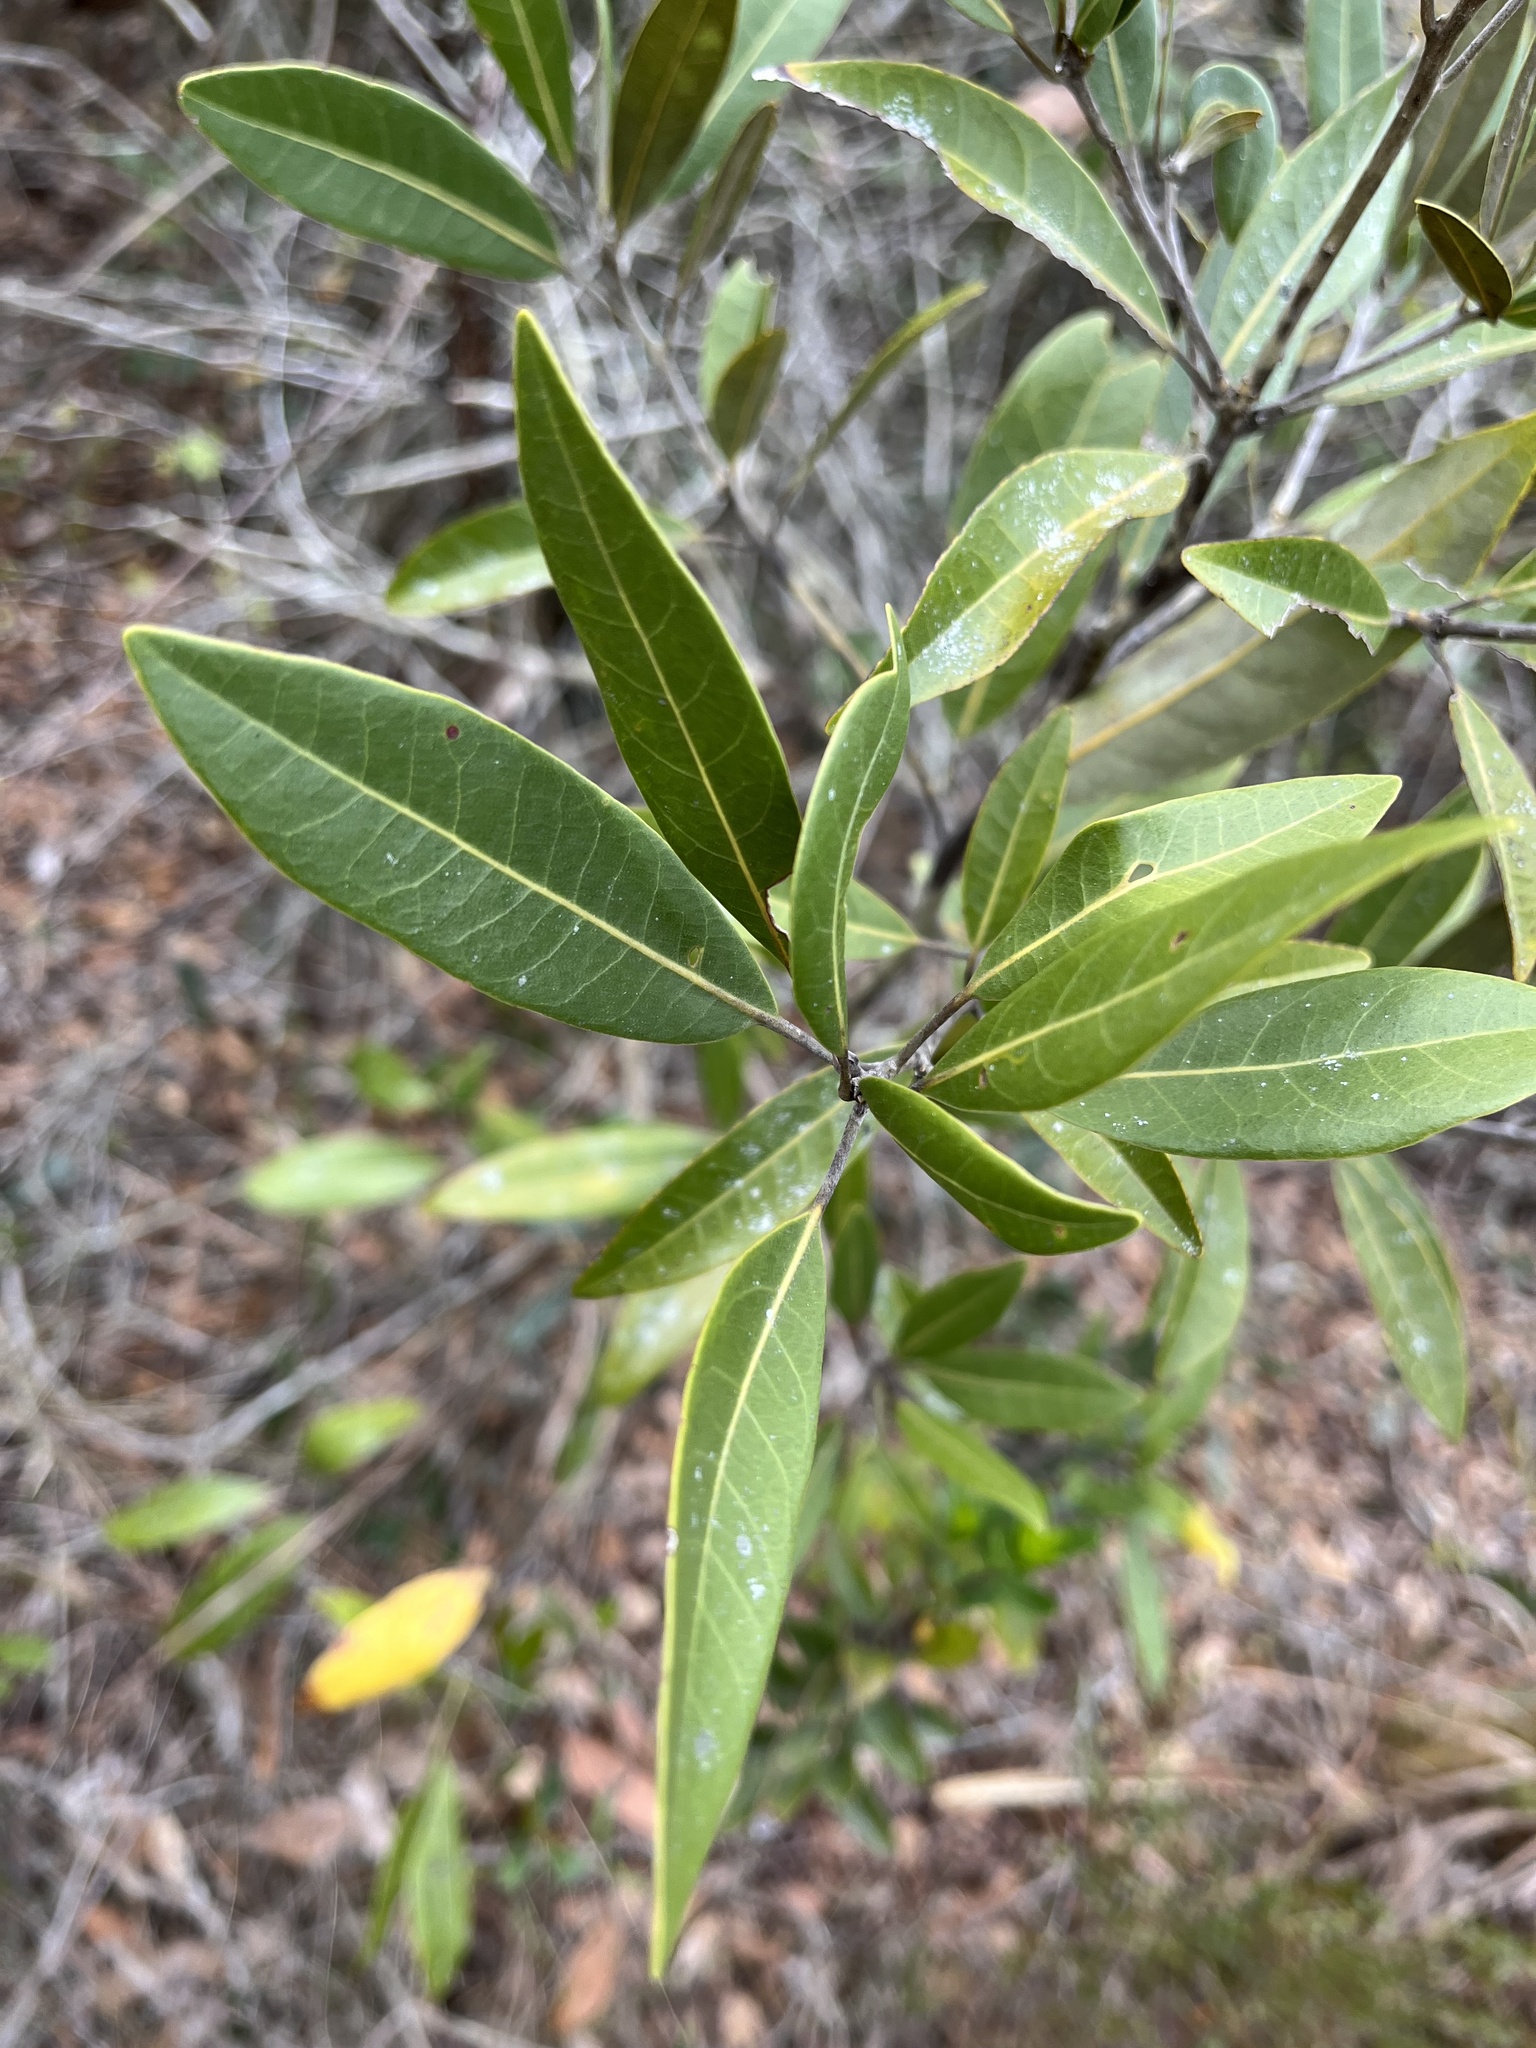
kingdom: Plantae
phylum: Tracheophyta
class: Magnoliopsida
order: Laurales
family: Lauraceae
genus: Persea
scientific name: Persea humilis
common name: Silkbay
